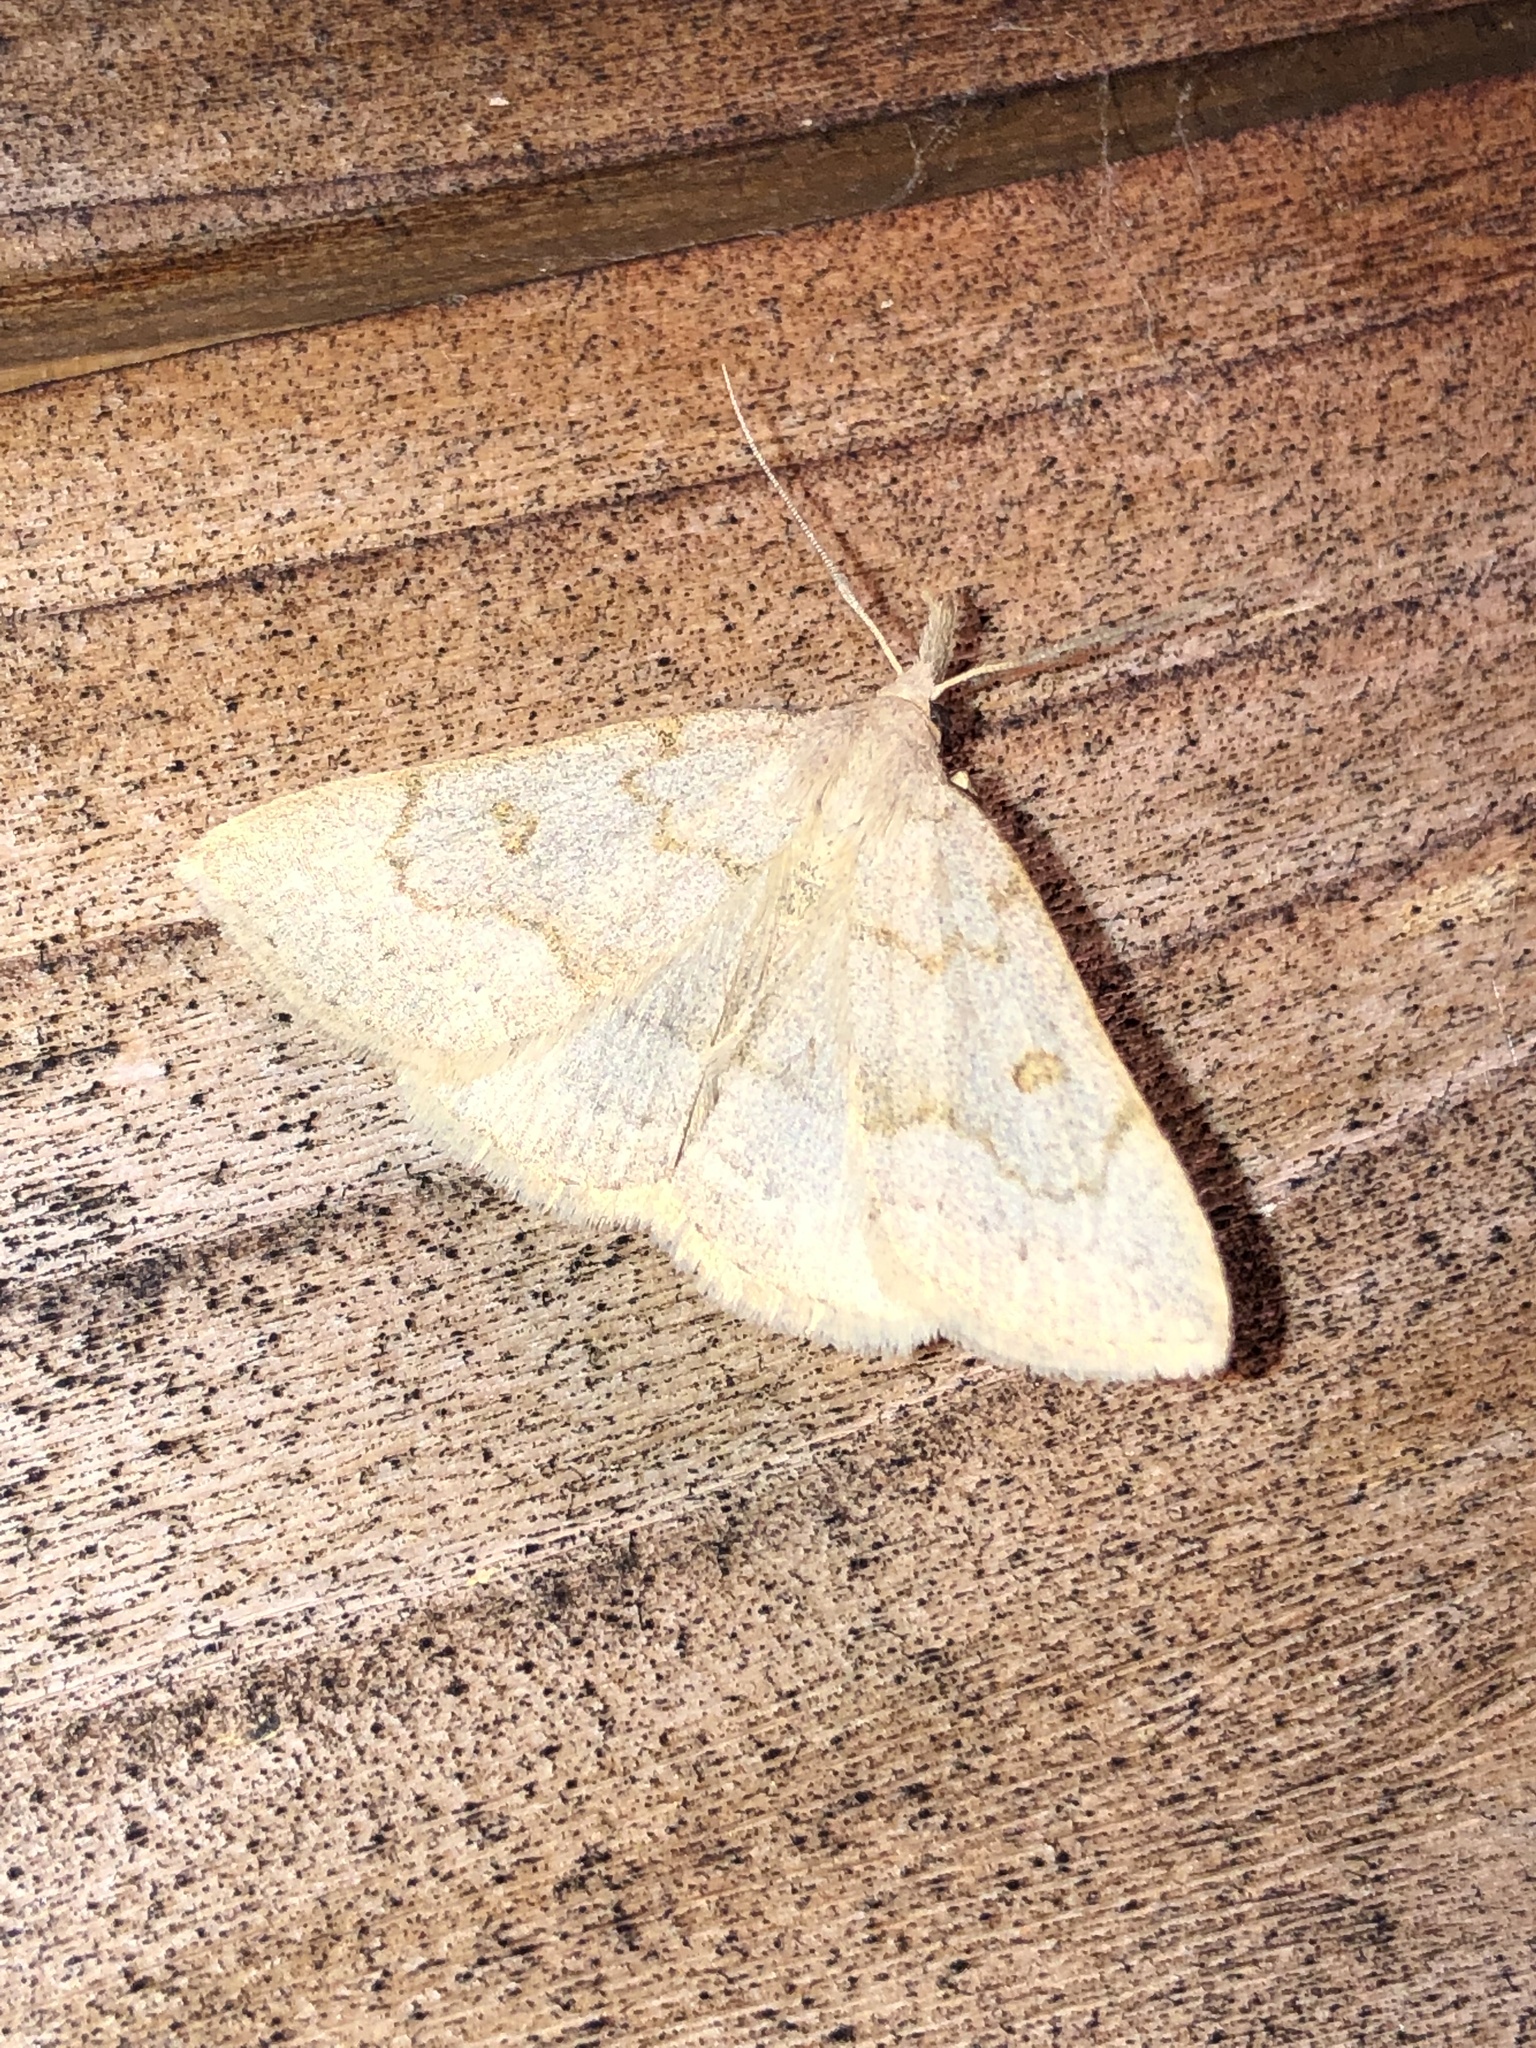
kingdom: Animalia
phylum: Arthropoda
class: Insecta
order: Lepidoptera
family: Erebidae
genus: Macrochilo
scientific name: Macrochilo morbidalis
